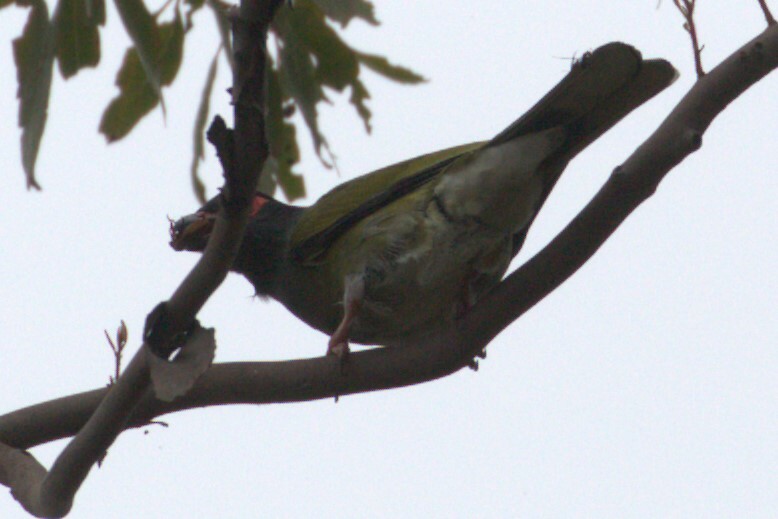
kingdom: Animalia
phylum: Chordata
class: Aves
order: Passeriformes
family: Oriolidae
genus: Sphecotheres
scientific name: Sphecotheres vieilloti
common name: Australasian figbird
